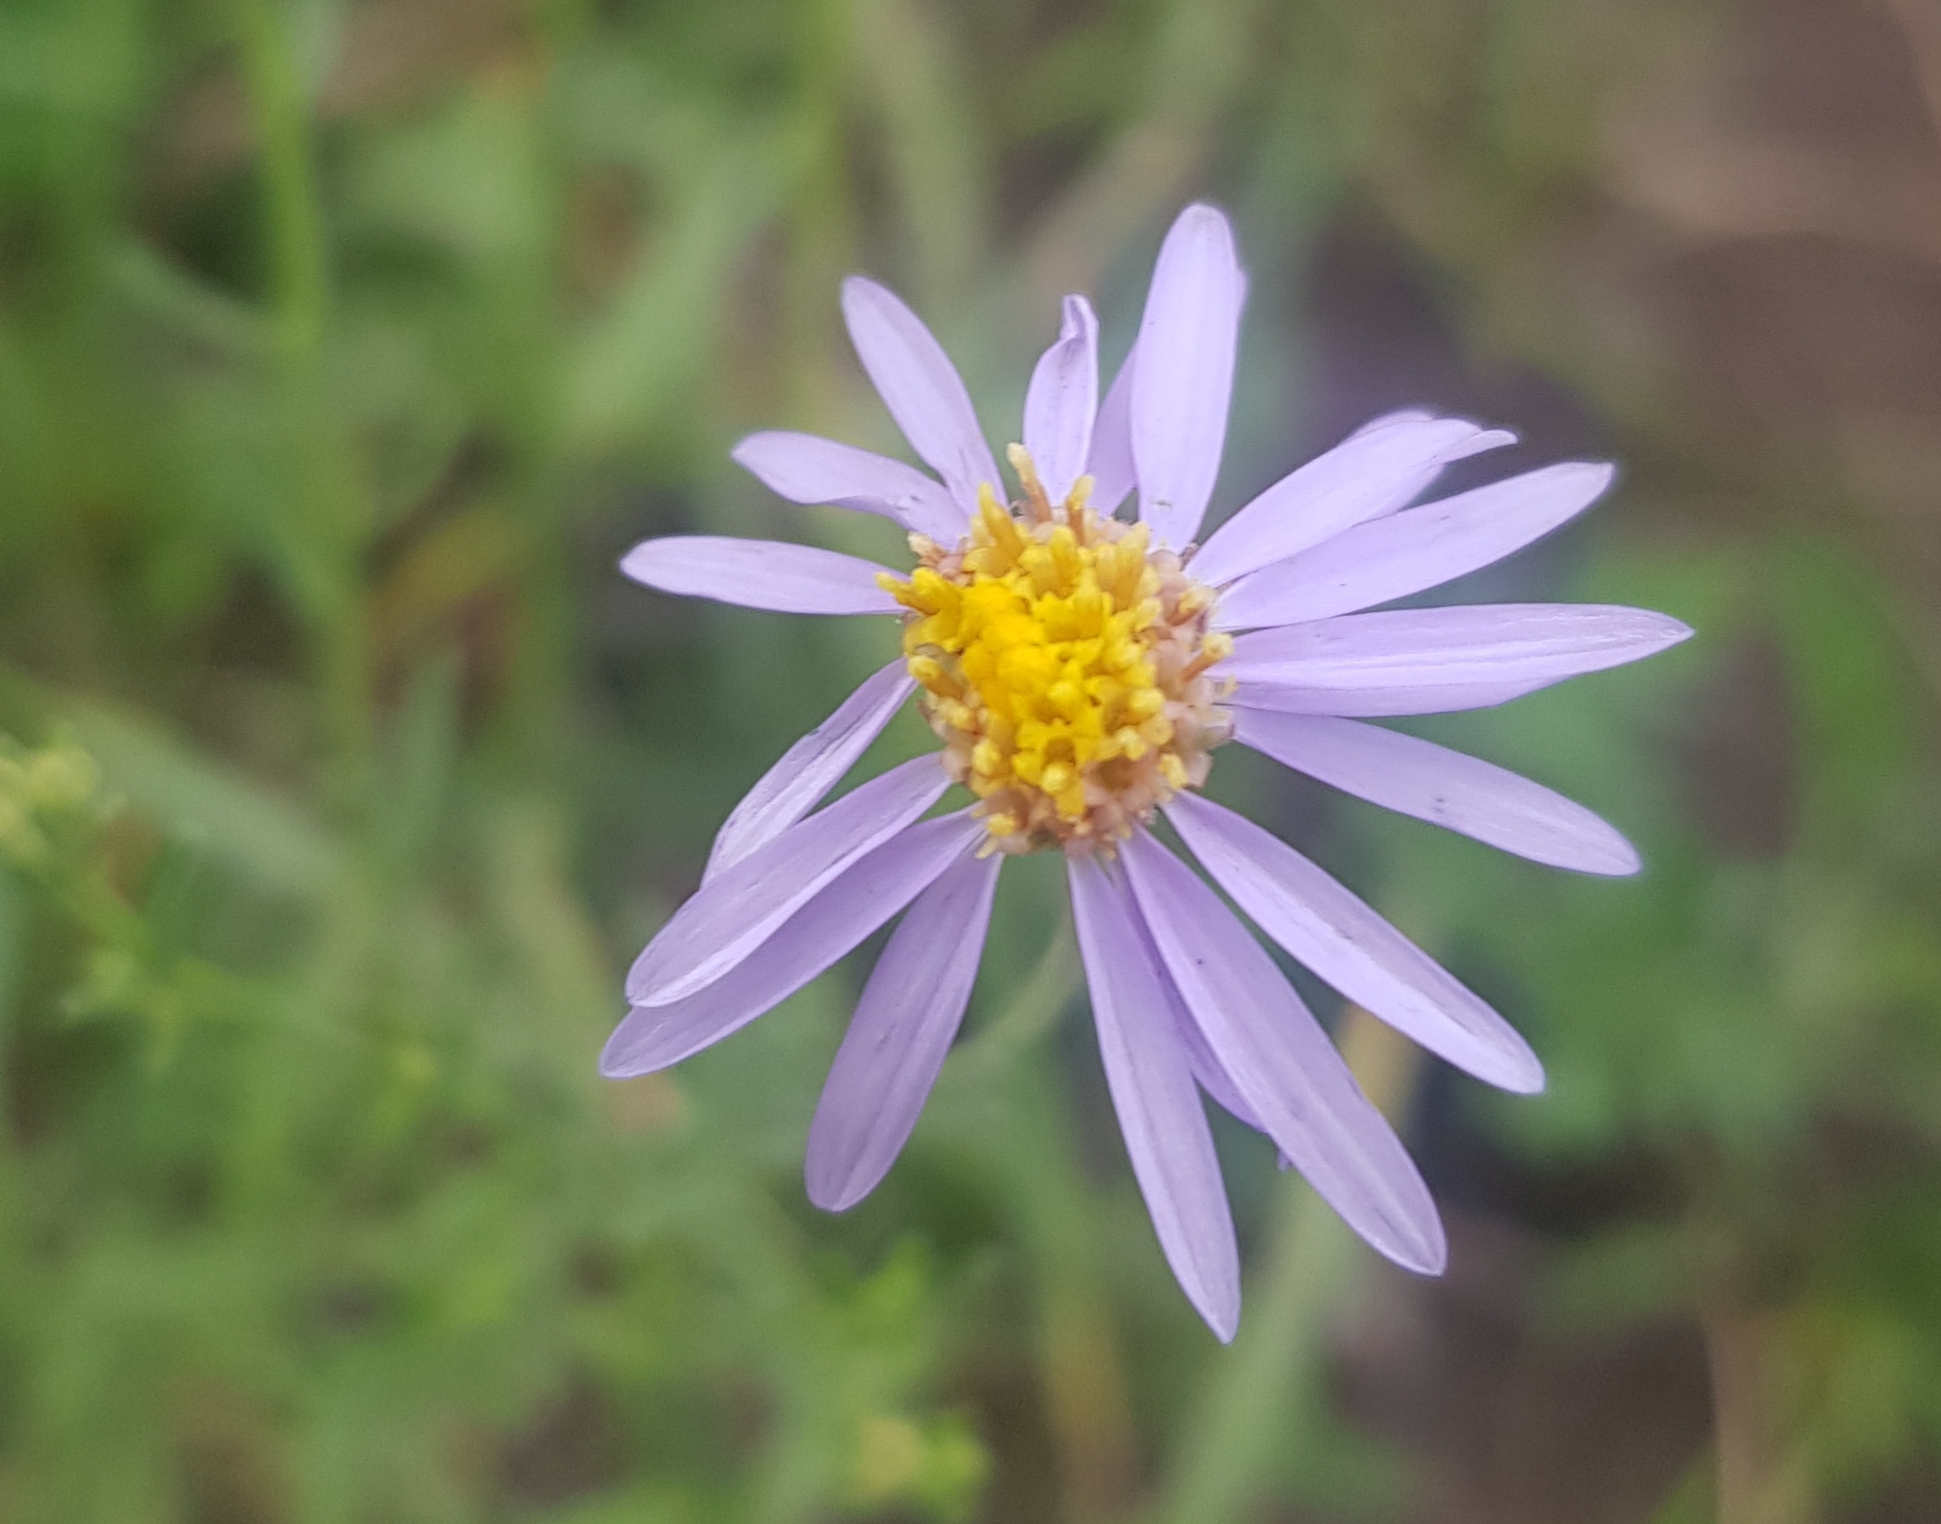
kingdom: Plantae
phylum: Tracheophyta
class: Magnoliopsida
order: Asterales
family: Asteraceae
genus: Heteropappus
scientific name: Heteropappus altaicus
